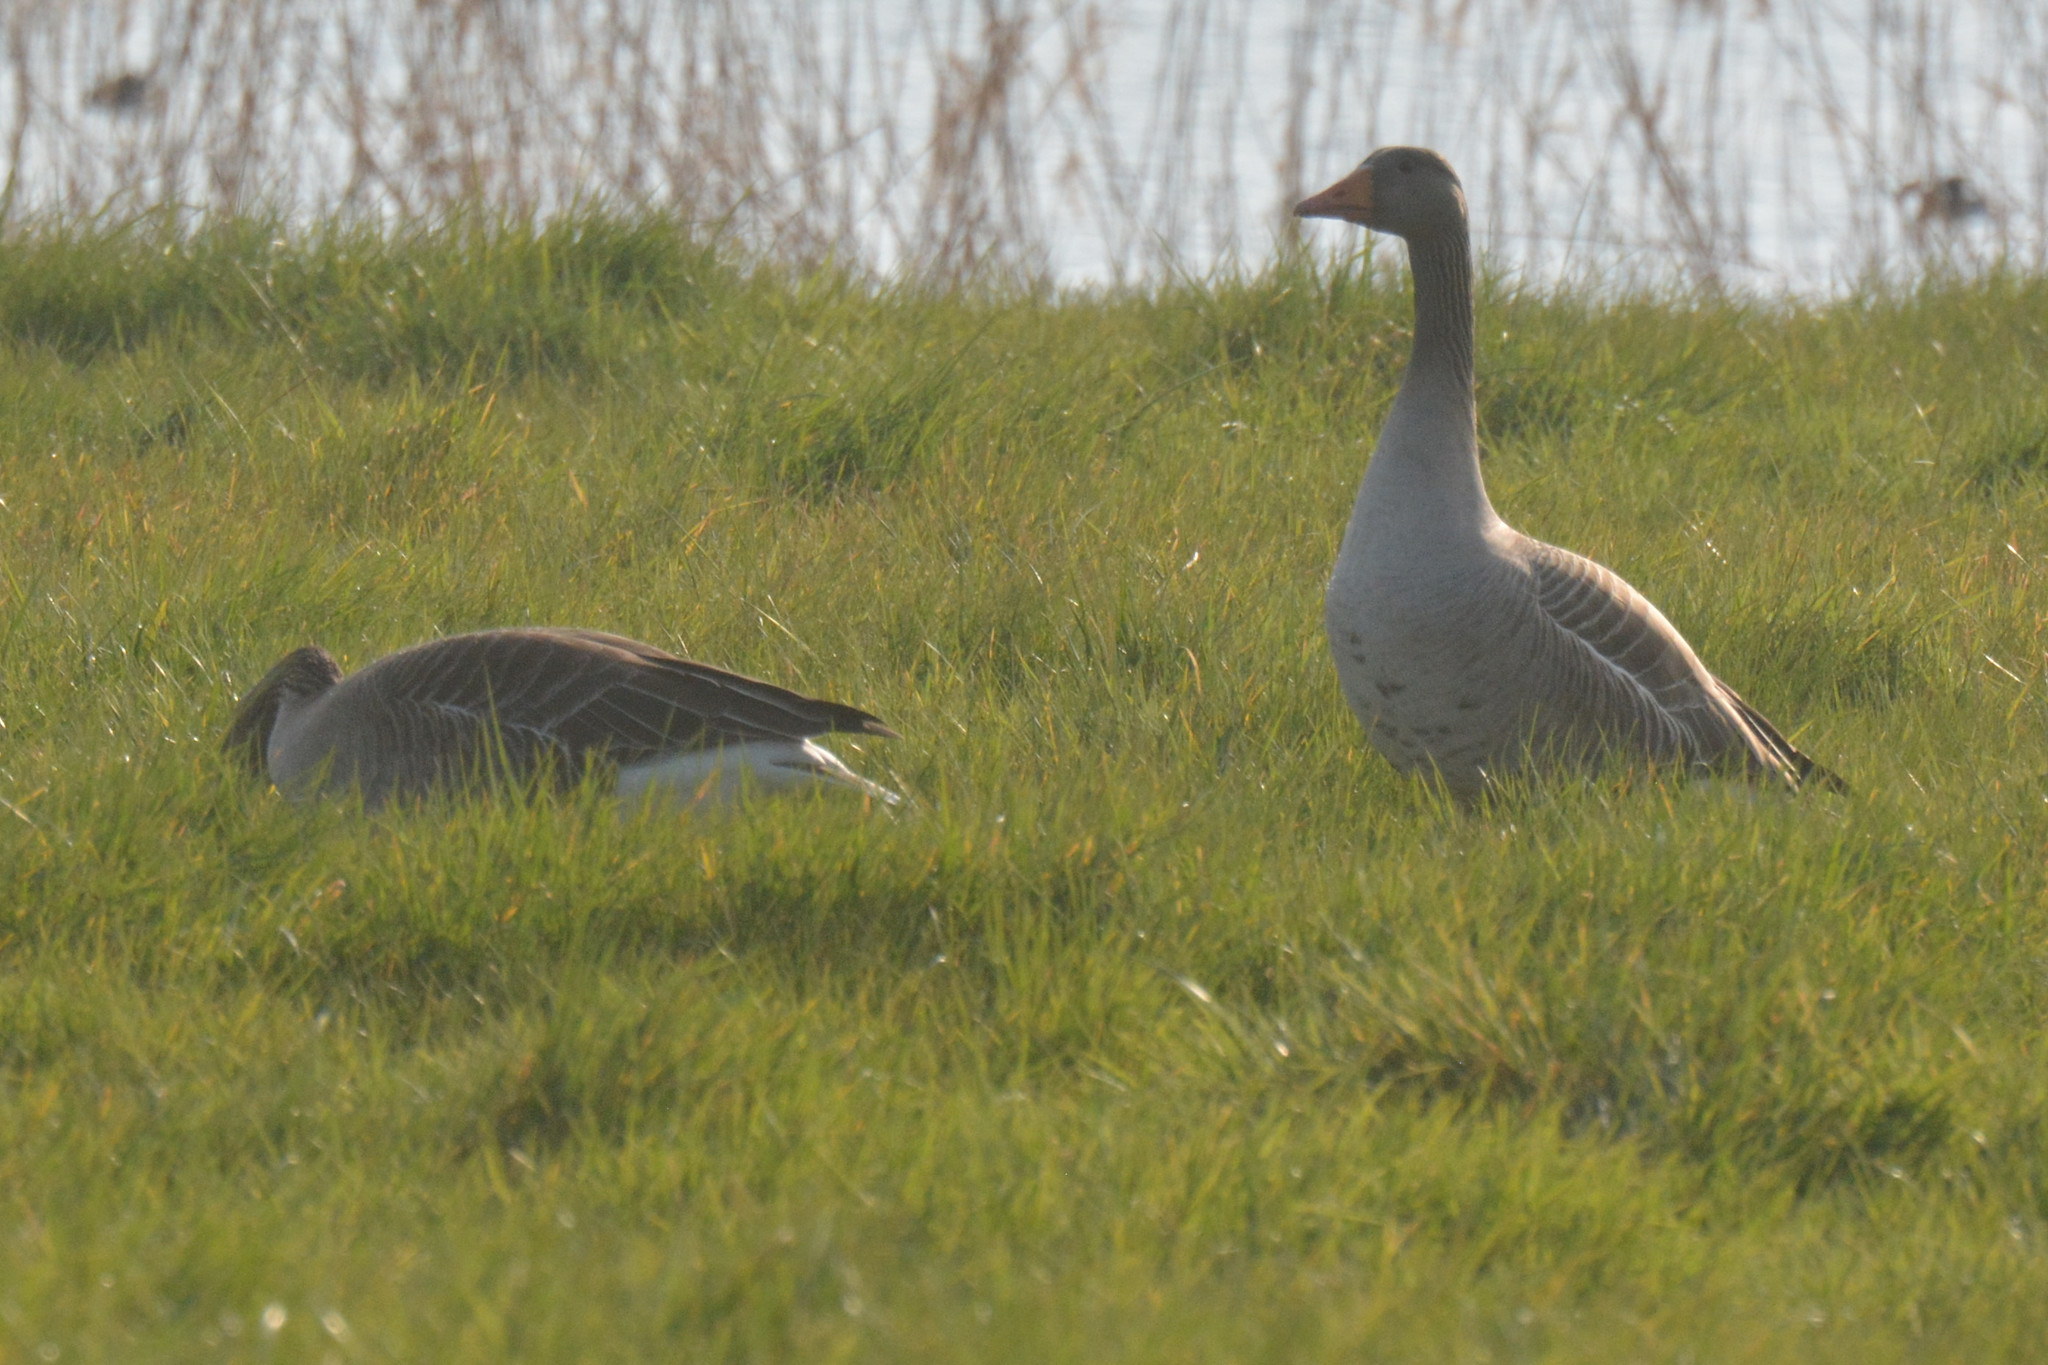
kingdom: Animalia
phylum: Chordata
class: Aves
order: Anseriformes
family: Anatidae
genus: Anser
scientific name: Anser anser
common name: Greylag goose
